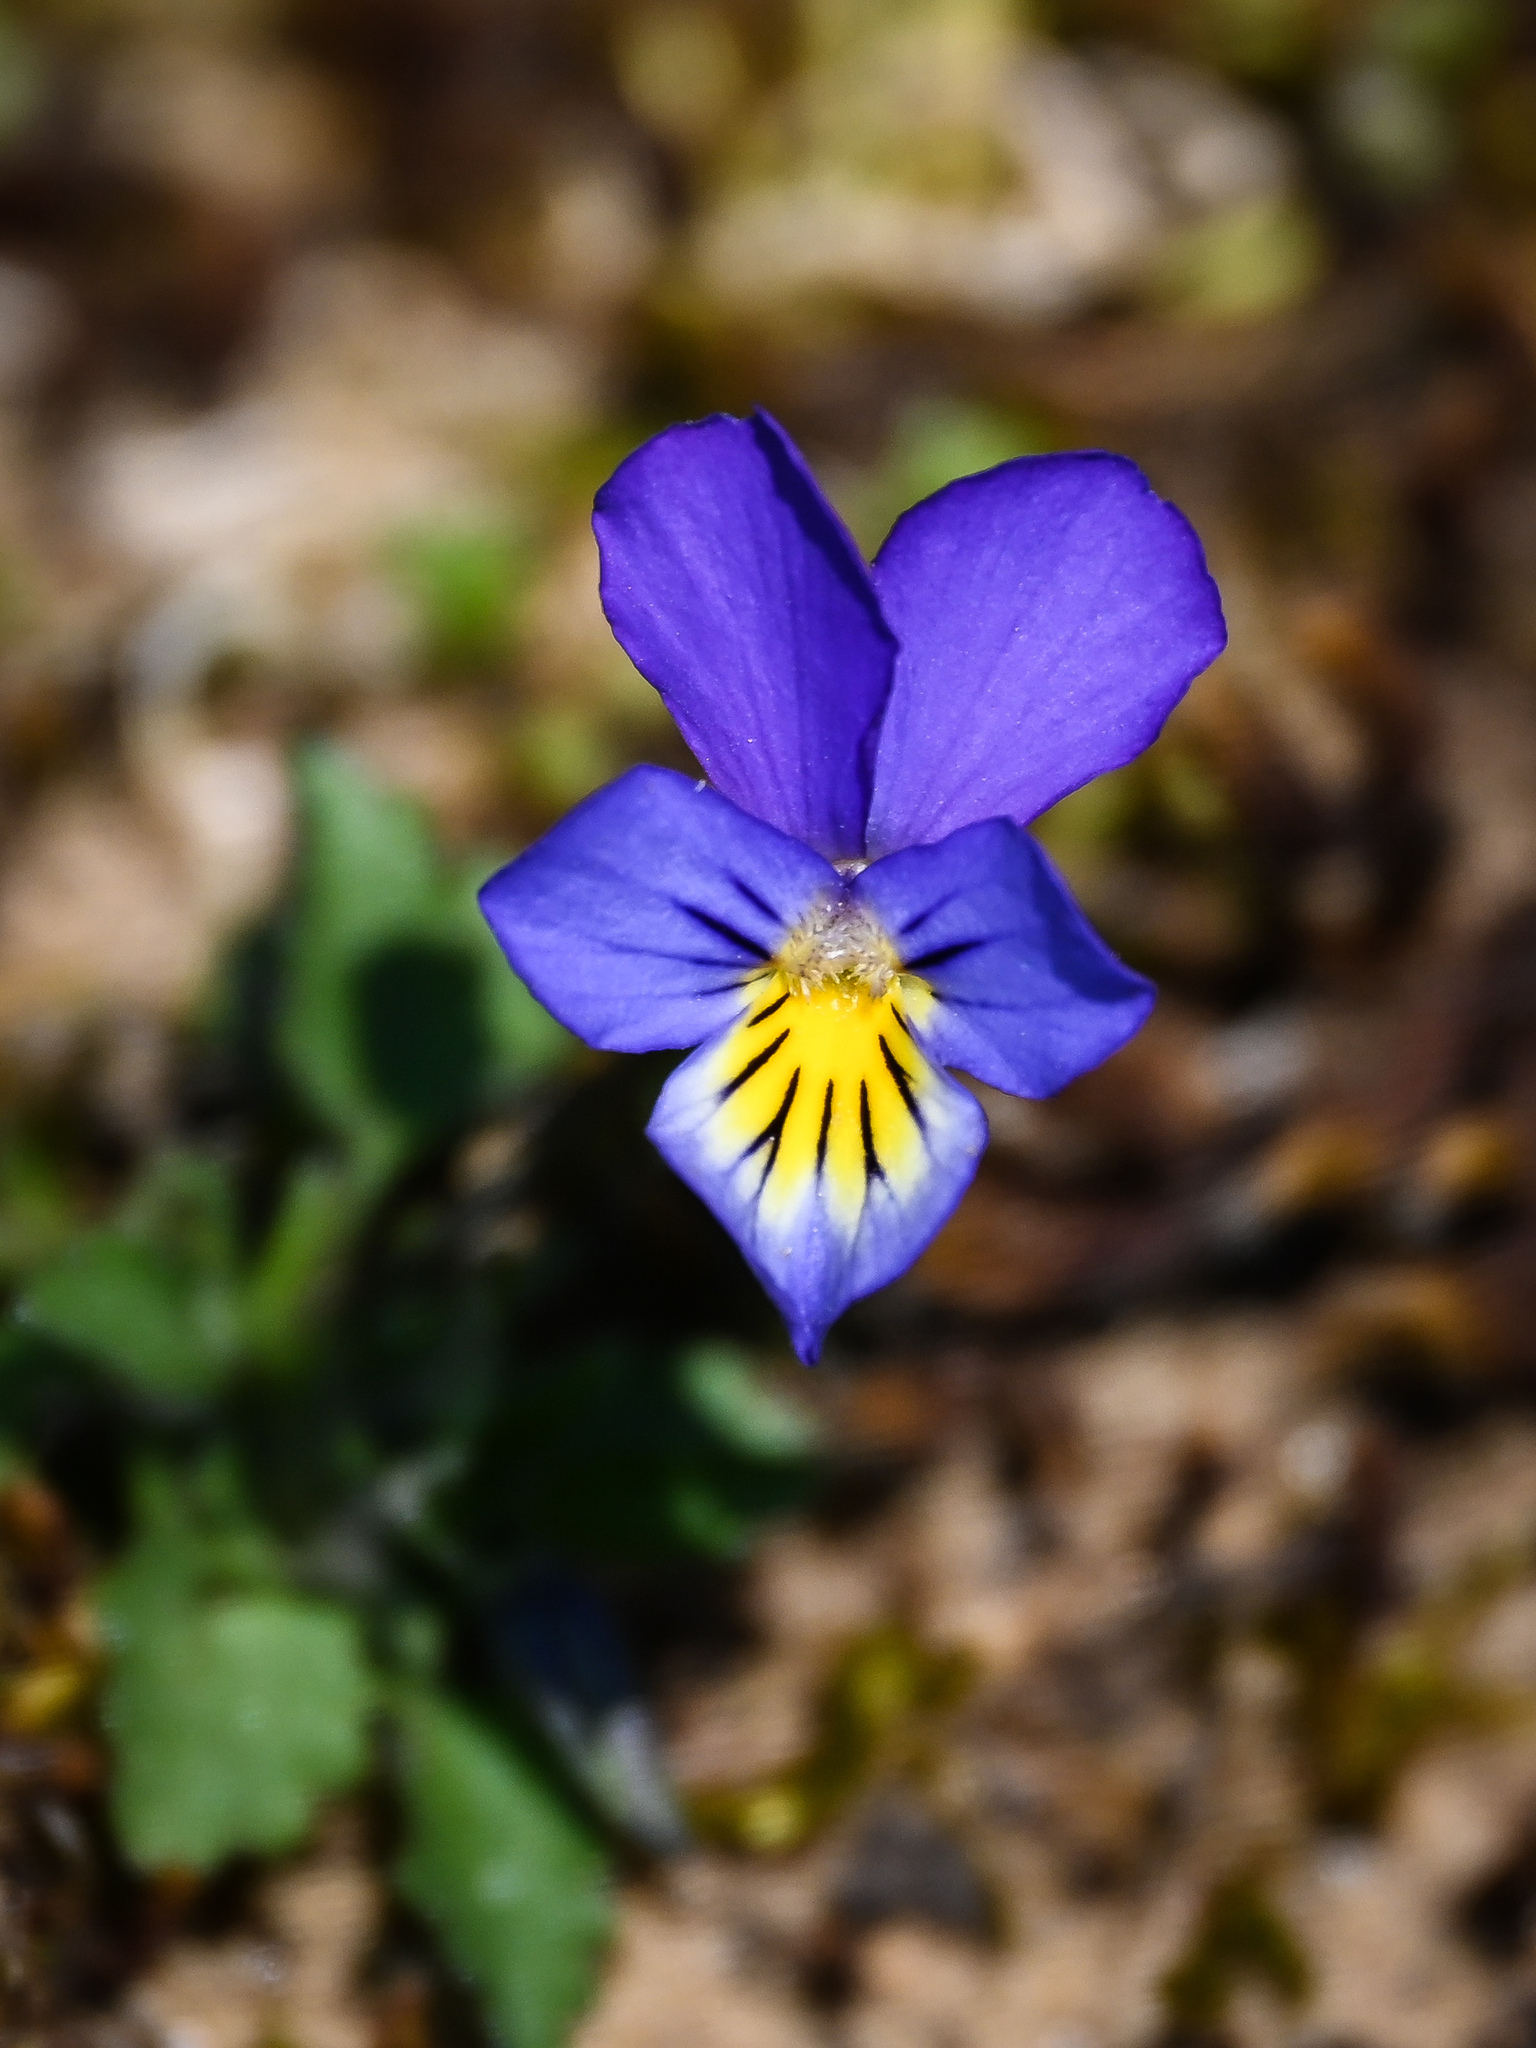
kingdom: Plantae
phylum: Tracheophyta
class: Magnoliopsida
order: Malpighiales
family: Violaceae
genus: Viola
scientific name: Viola tricolor
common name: Pansy
